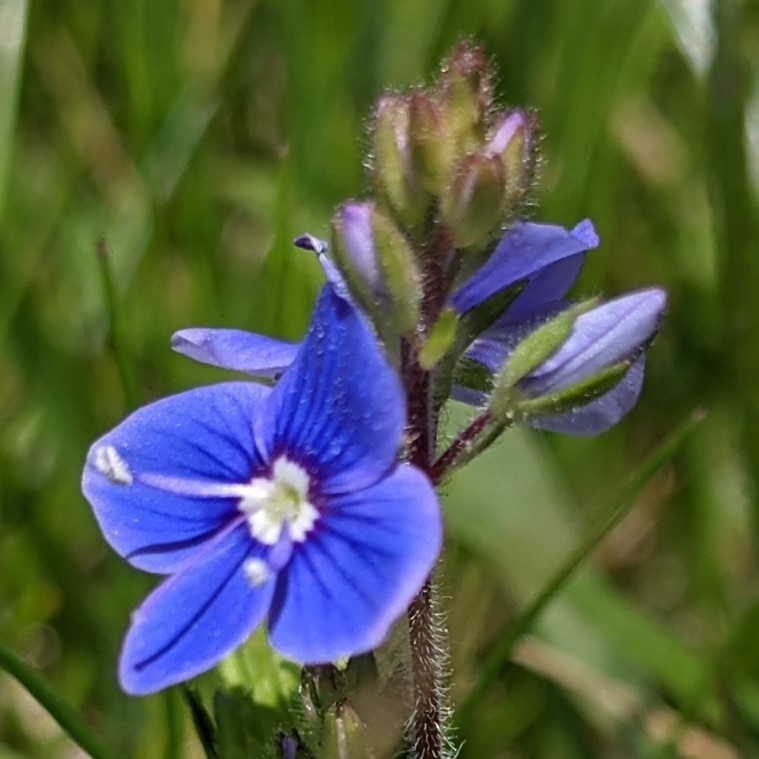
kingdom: Plantae
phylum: Tracheophyta
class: Magnoliopsida
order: Lamiales
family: Plantaginaceae
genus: Veronica
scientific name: Veronica chamaedrys
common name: Germander speedwell
